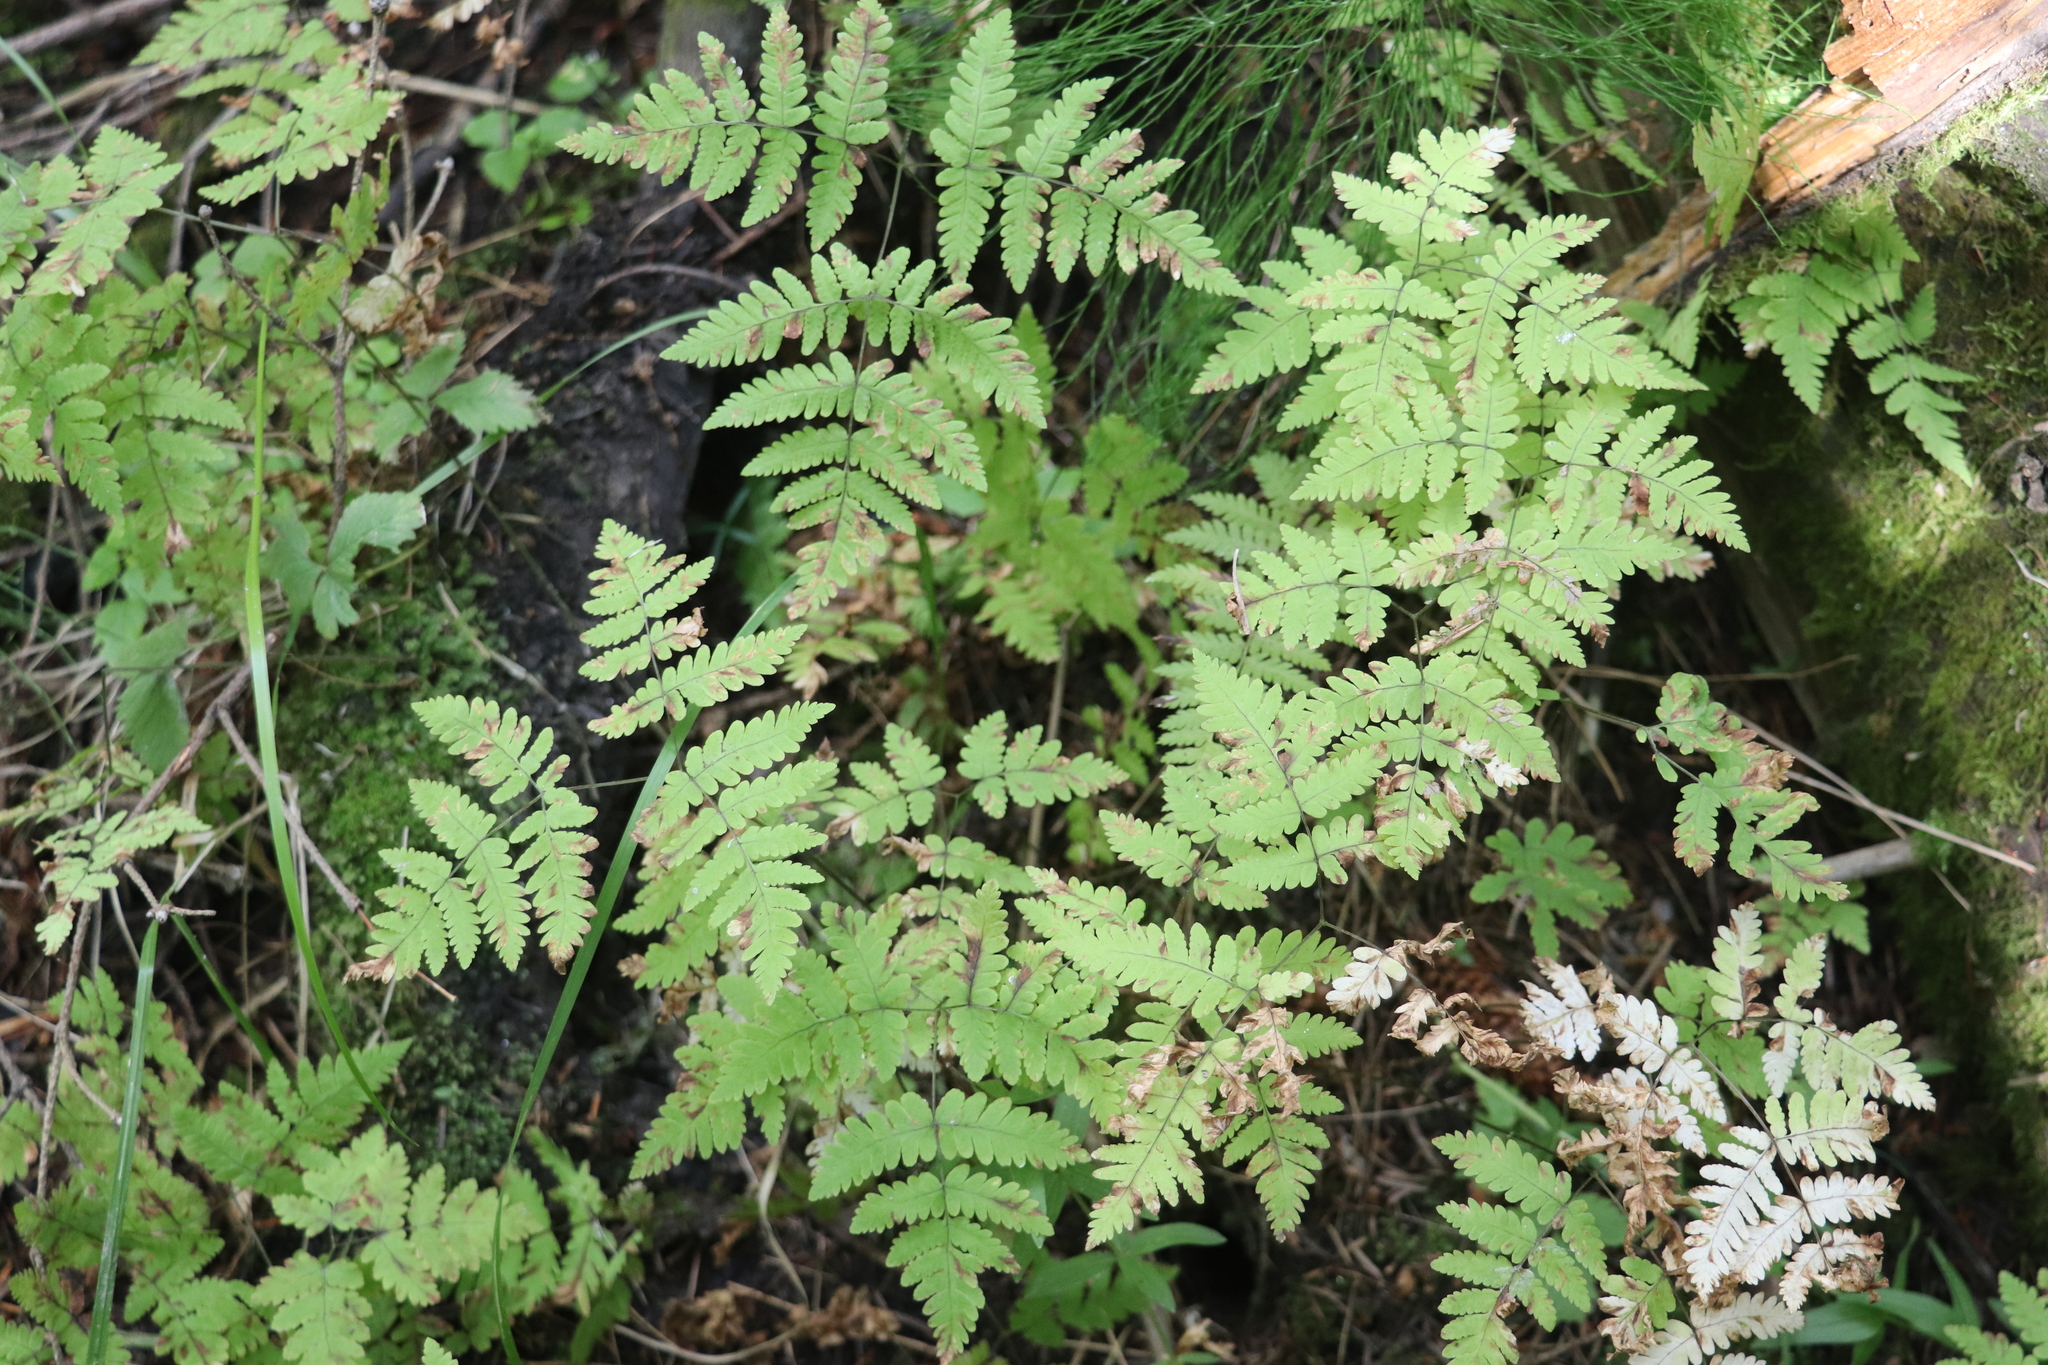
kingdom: Plantae
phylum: Tracheophyta
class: Polypodiopsida
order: Polypodiales
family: Cystopteridaceae
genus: Gymnocarpium
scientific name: Gymnocarpium dryopteris
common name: Oak fern
